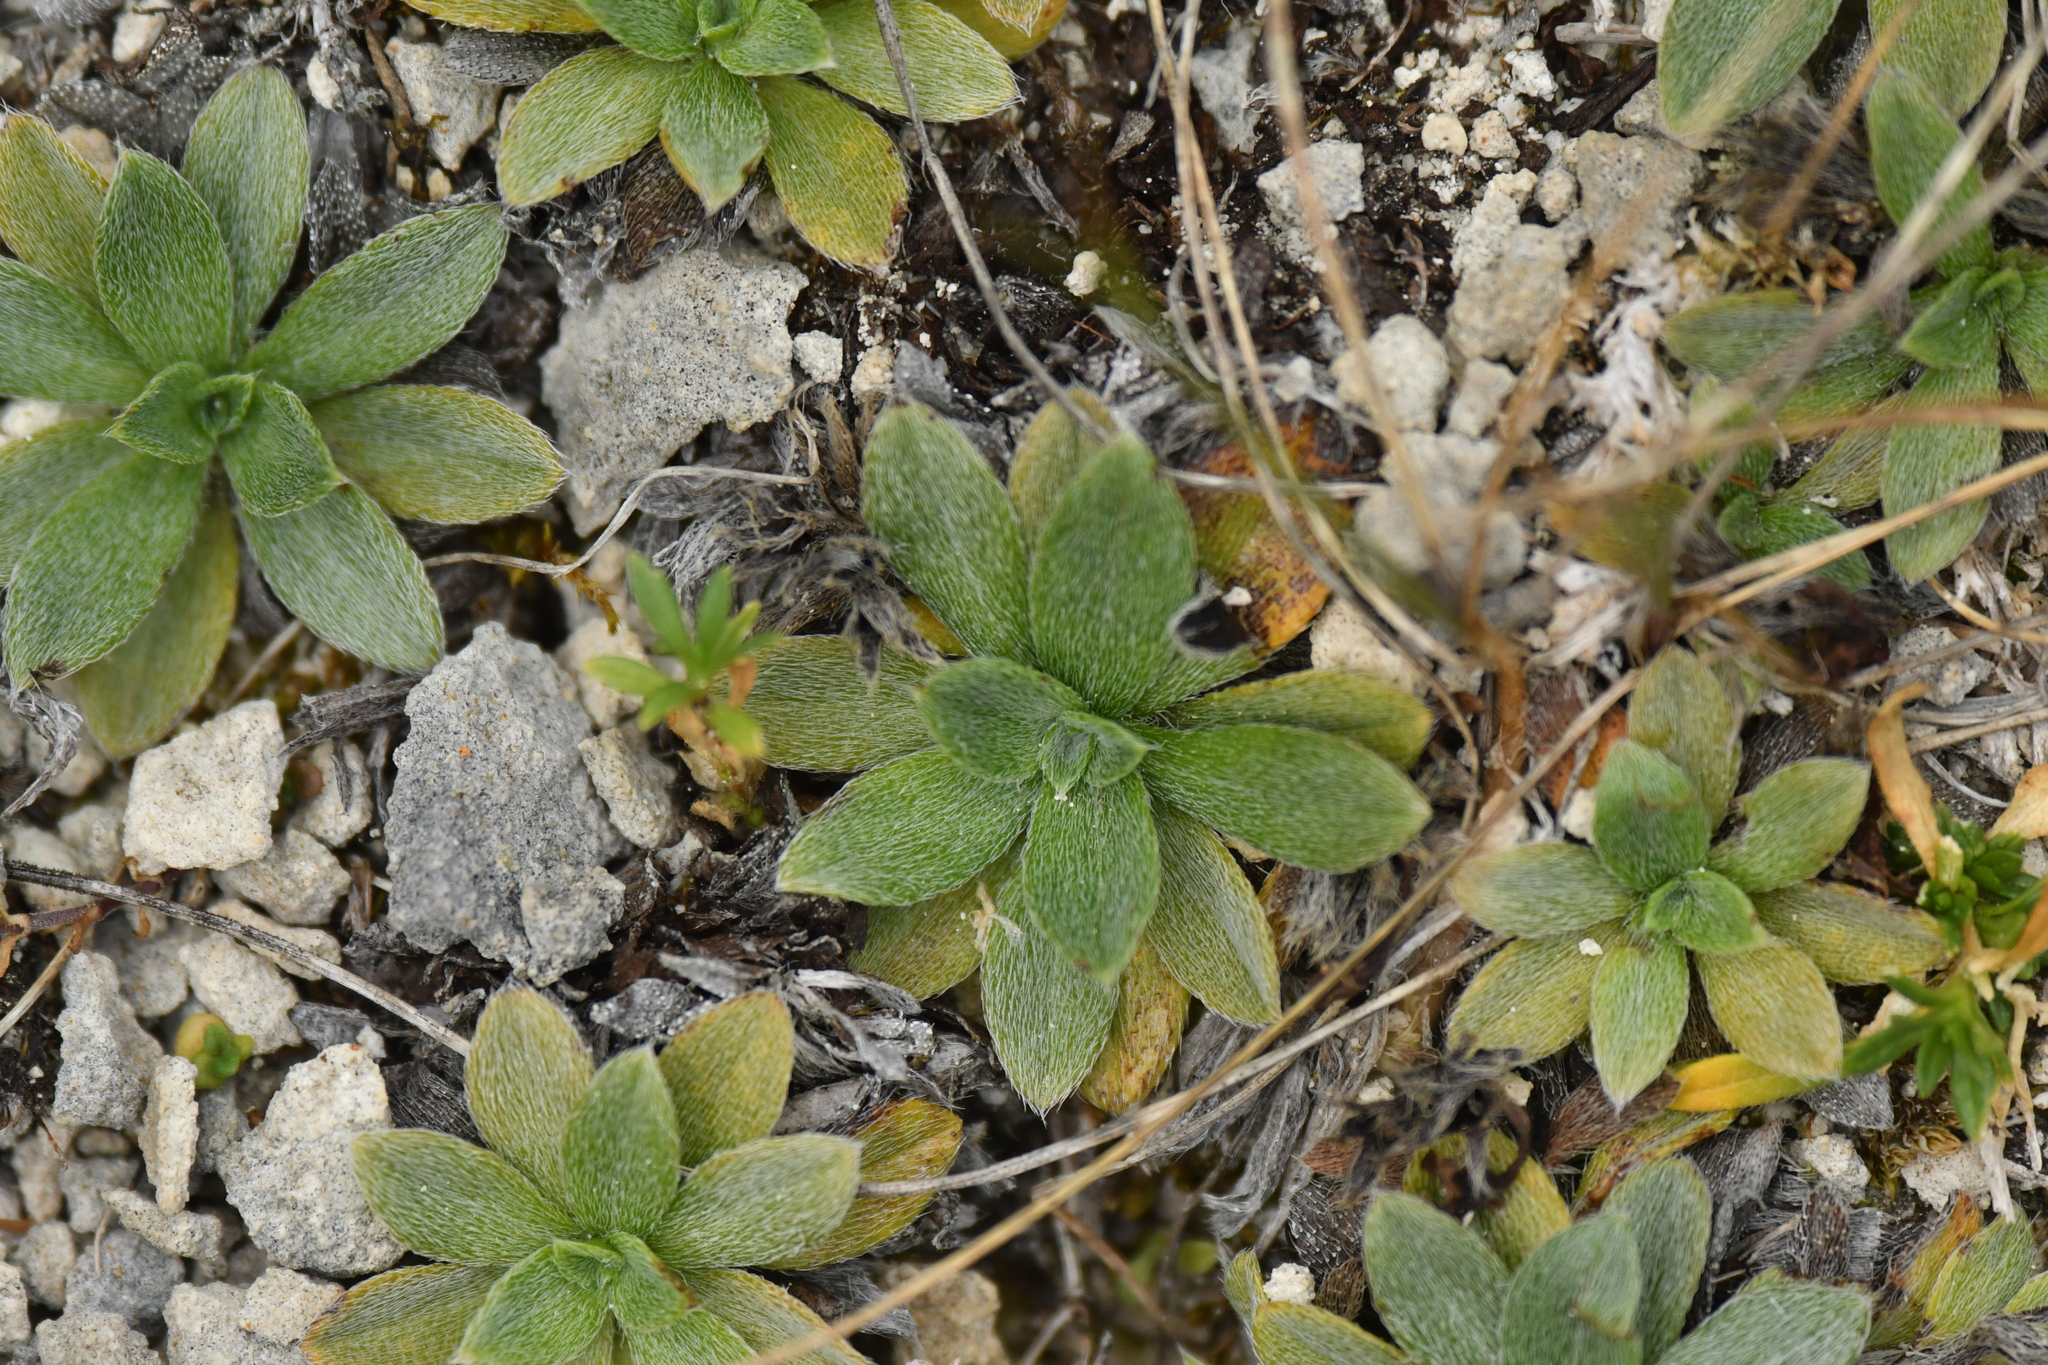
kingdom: Plantae
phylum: Tracheophyta
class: Magnoliopsida
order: Boraginales
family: Boraginaceae
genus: Myosotis
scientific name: Myosotis colensoi
